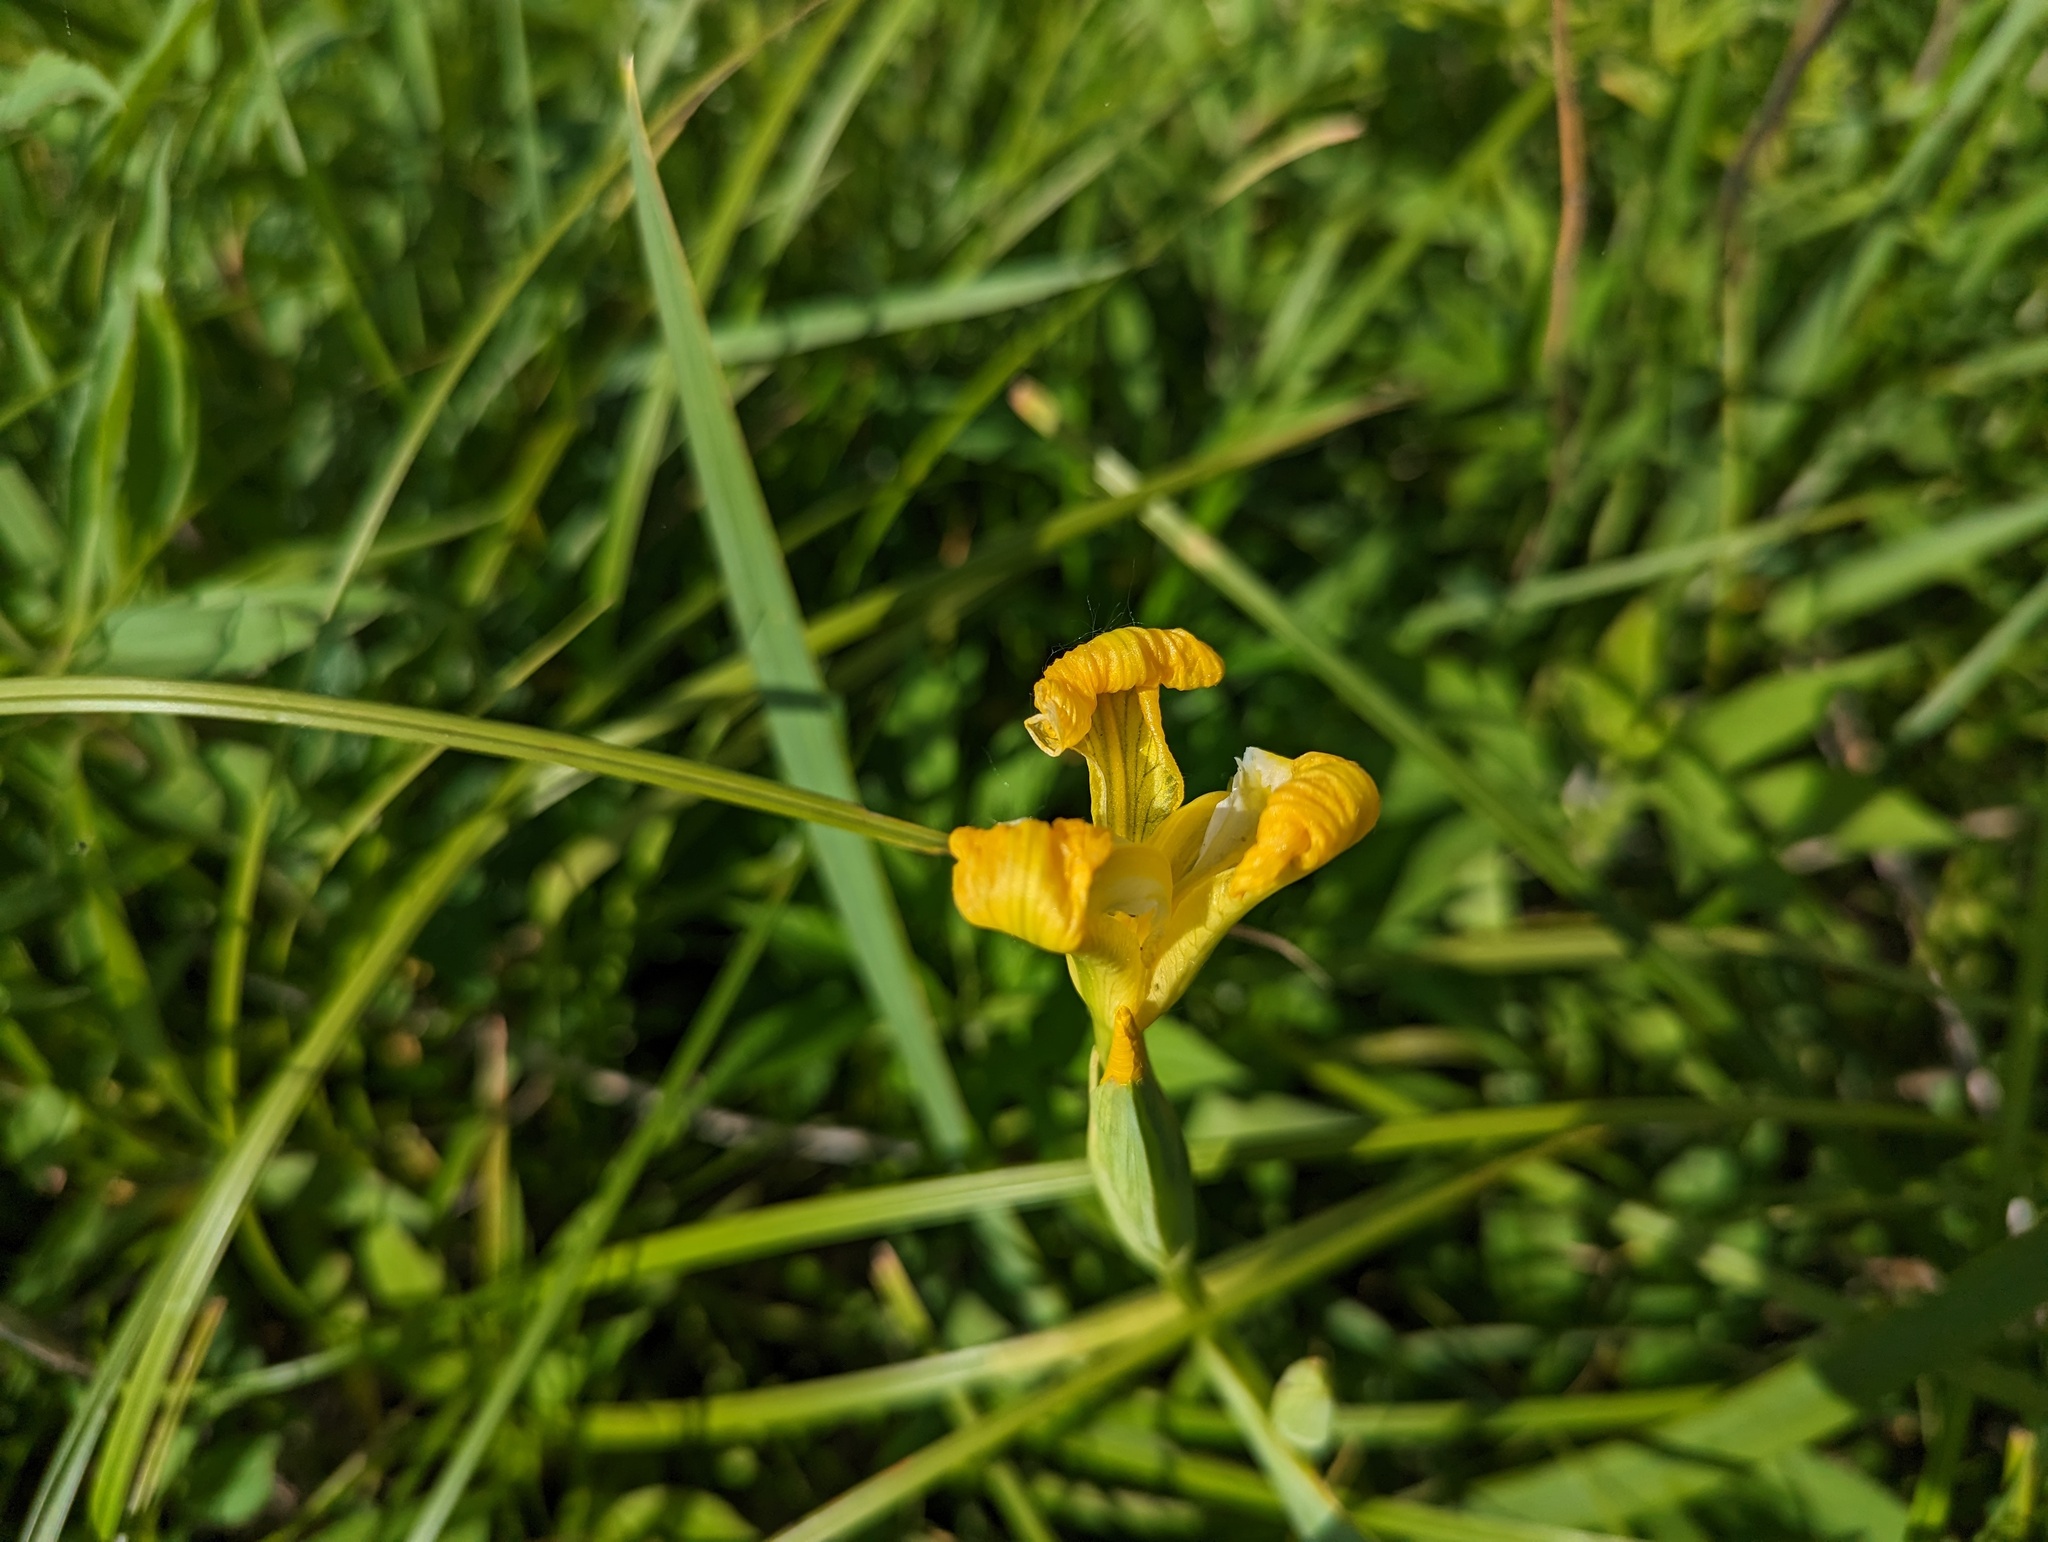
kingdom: Plantae
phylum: Tracheophyta
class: Liliopsida
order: Asparagales
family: Iridaceae
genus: Iris
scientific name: Iris pseudacorus
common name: Yellow flag
